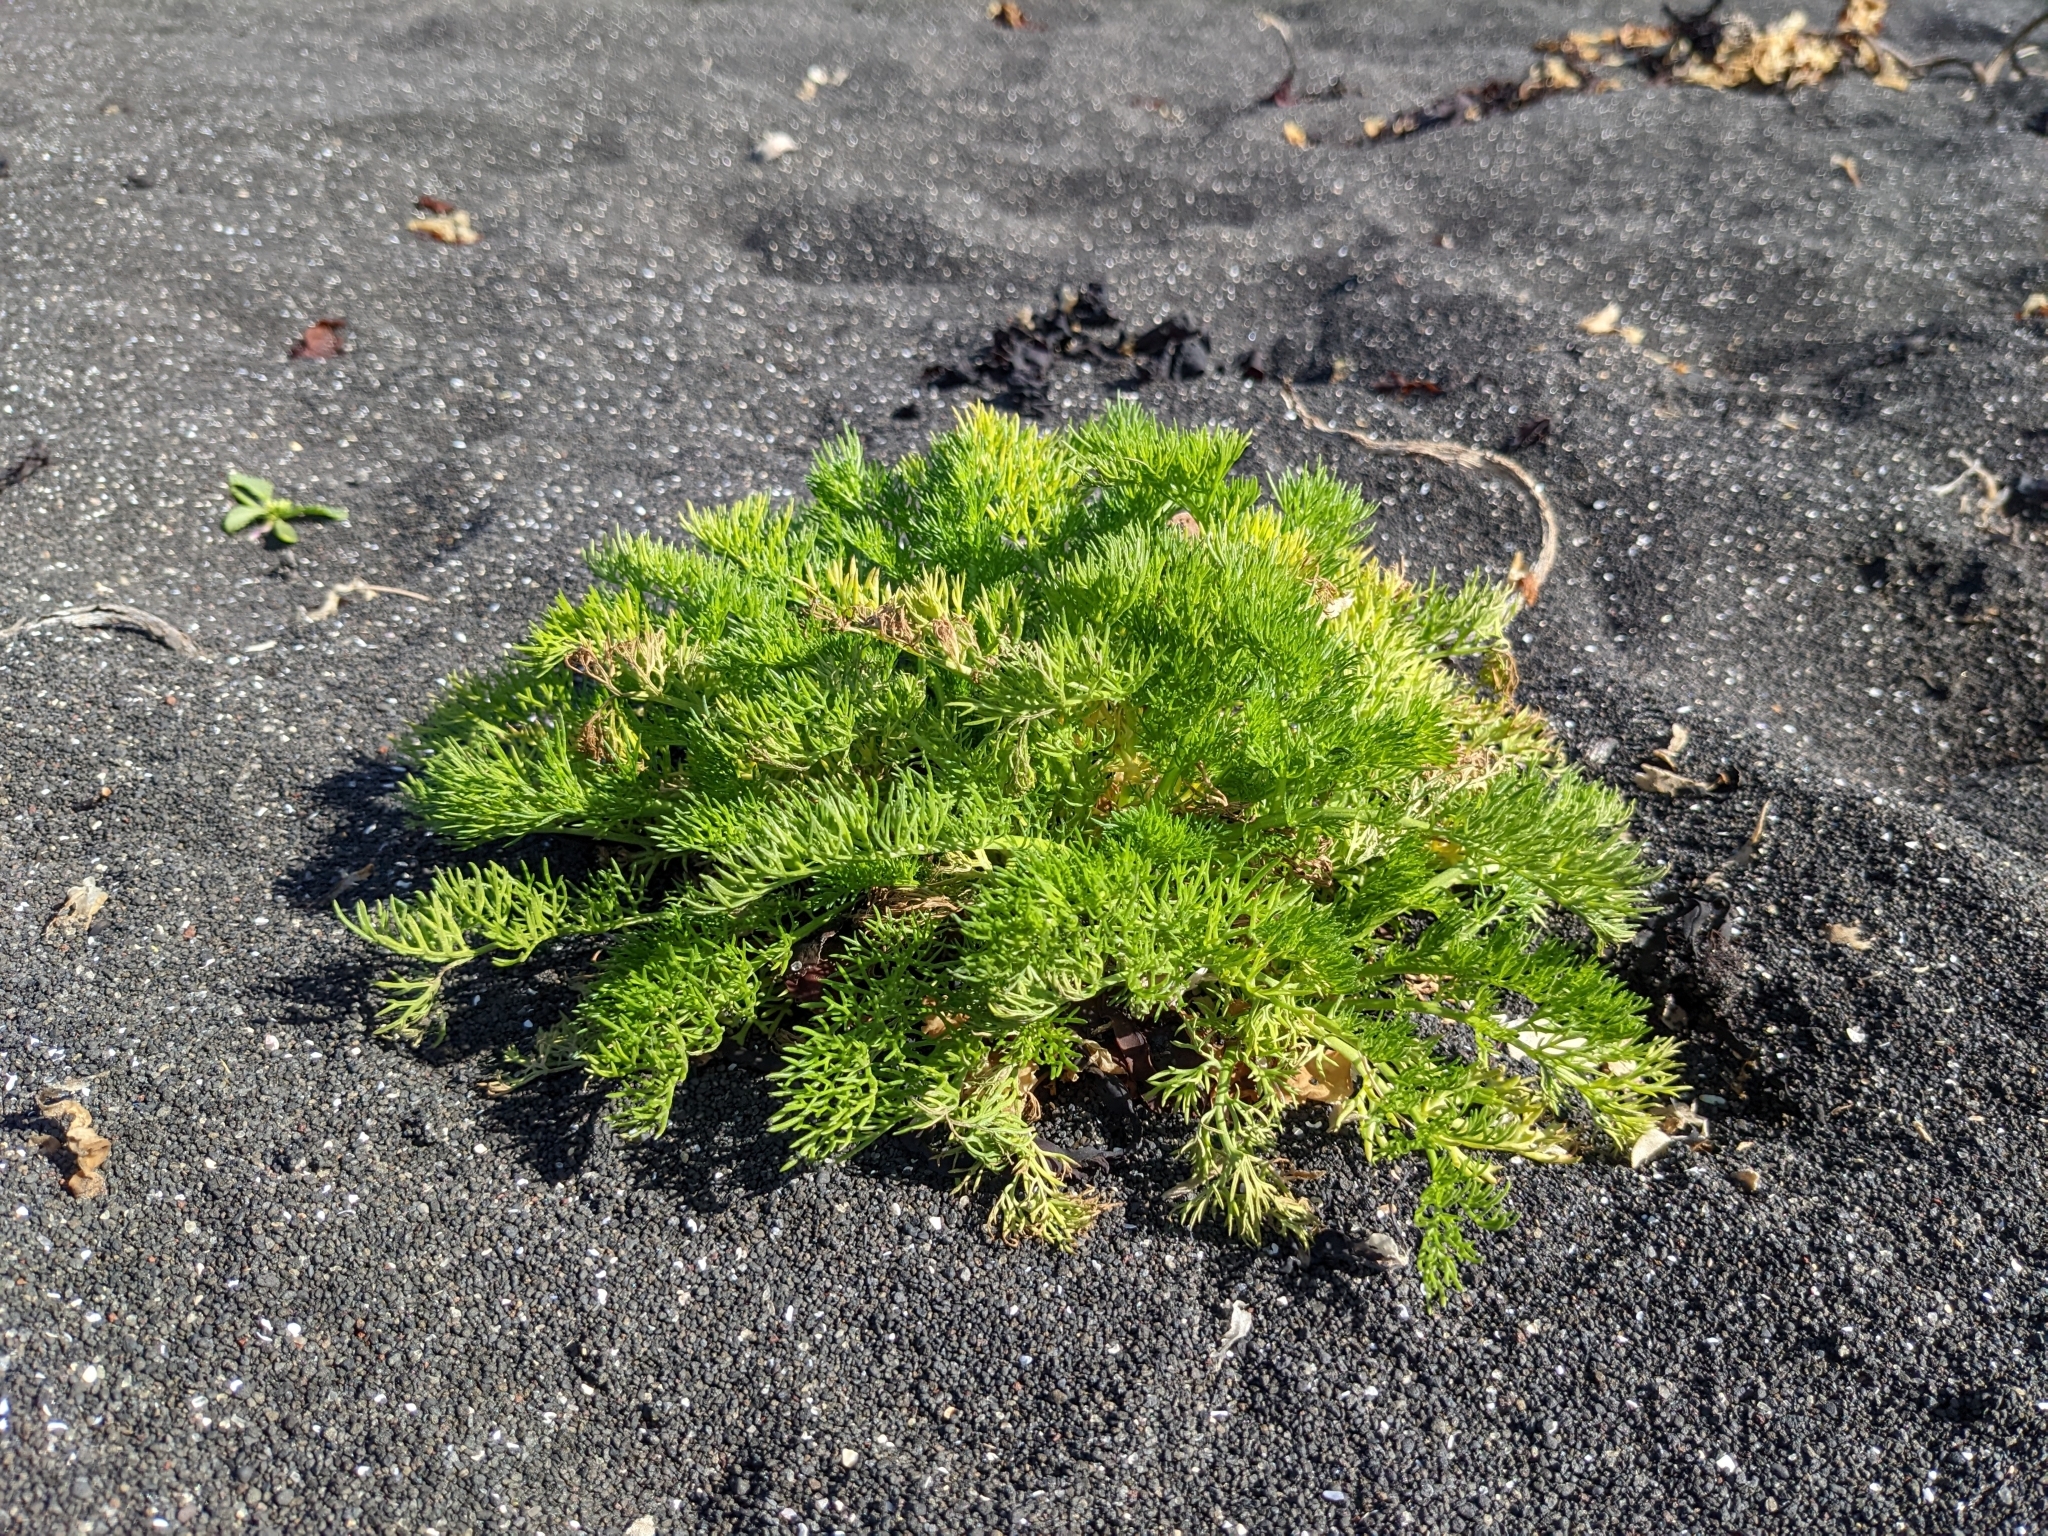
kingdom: Plantae
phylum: Tracheophyta
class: Magnoliopsida
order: Asterales
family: Asteraceae
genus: Tripleurospermum
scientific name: Tripleurospermum maritimum
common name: Sea mayweed
